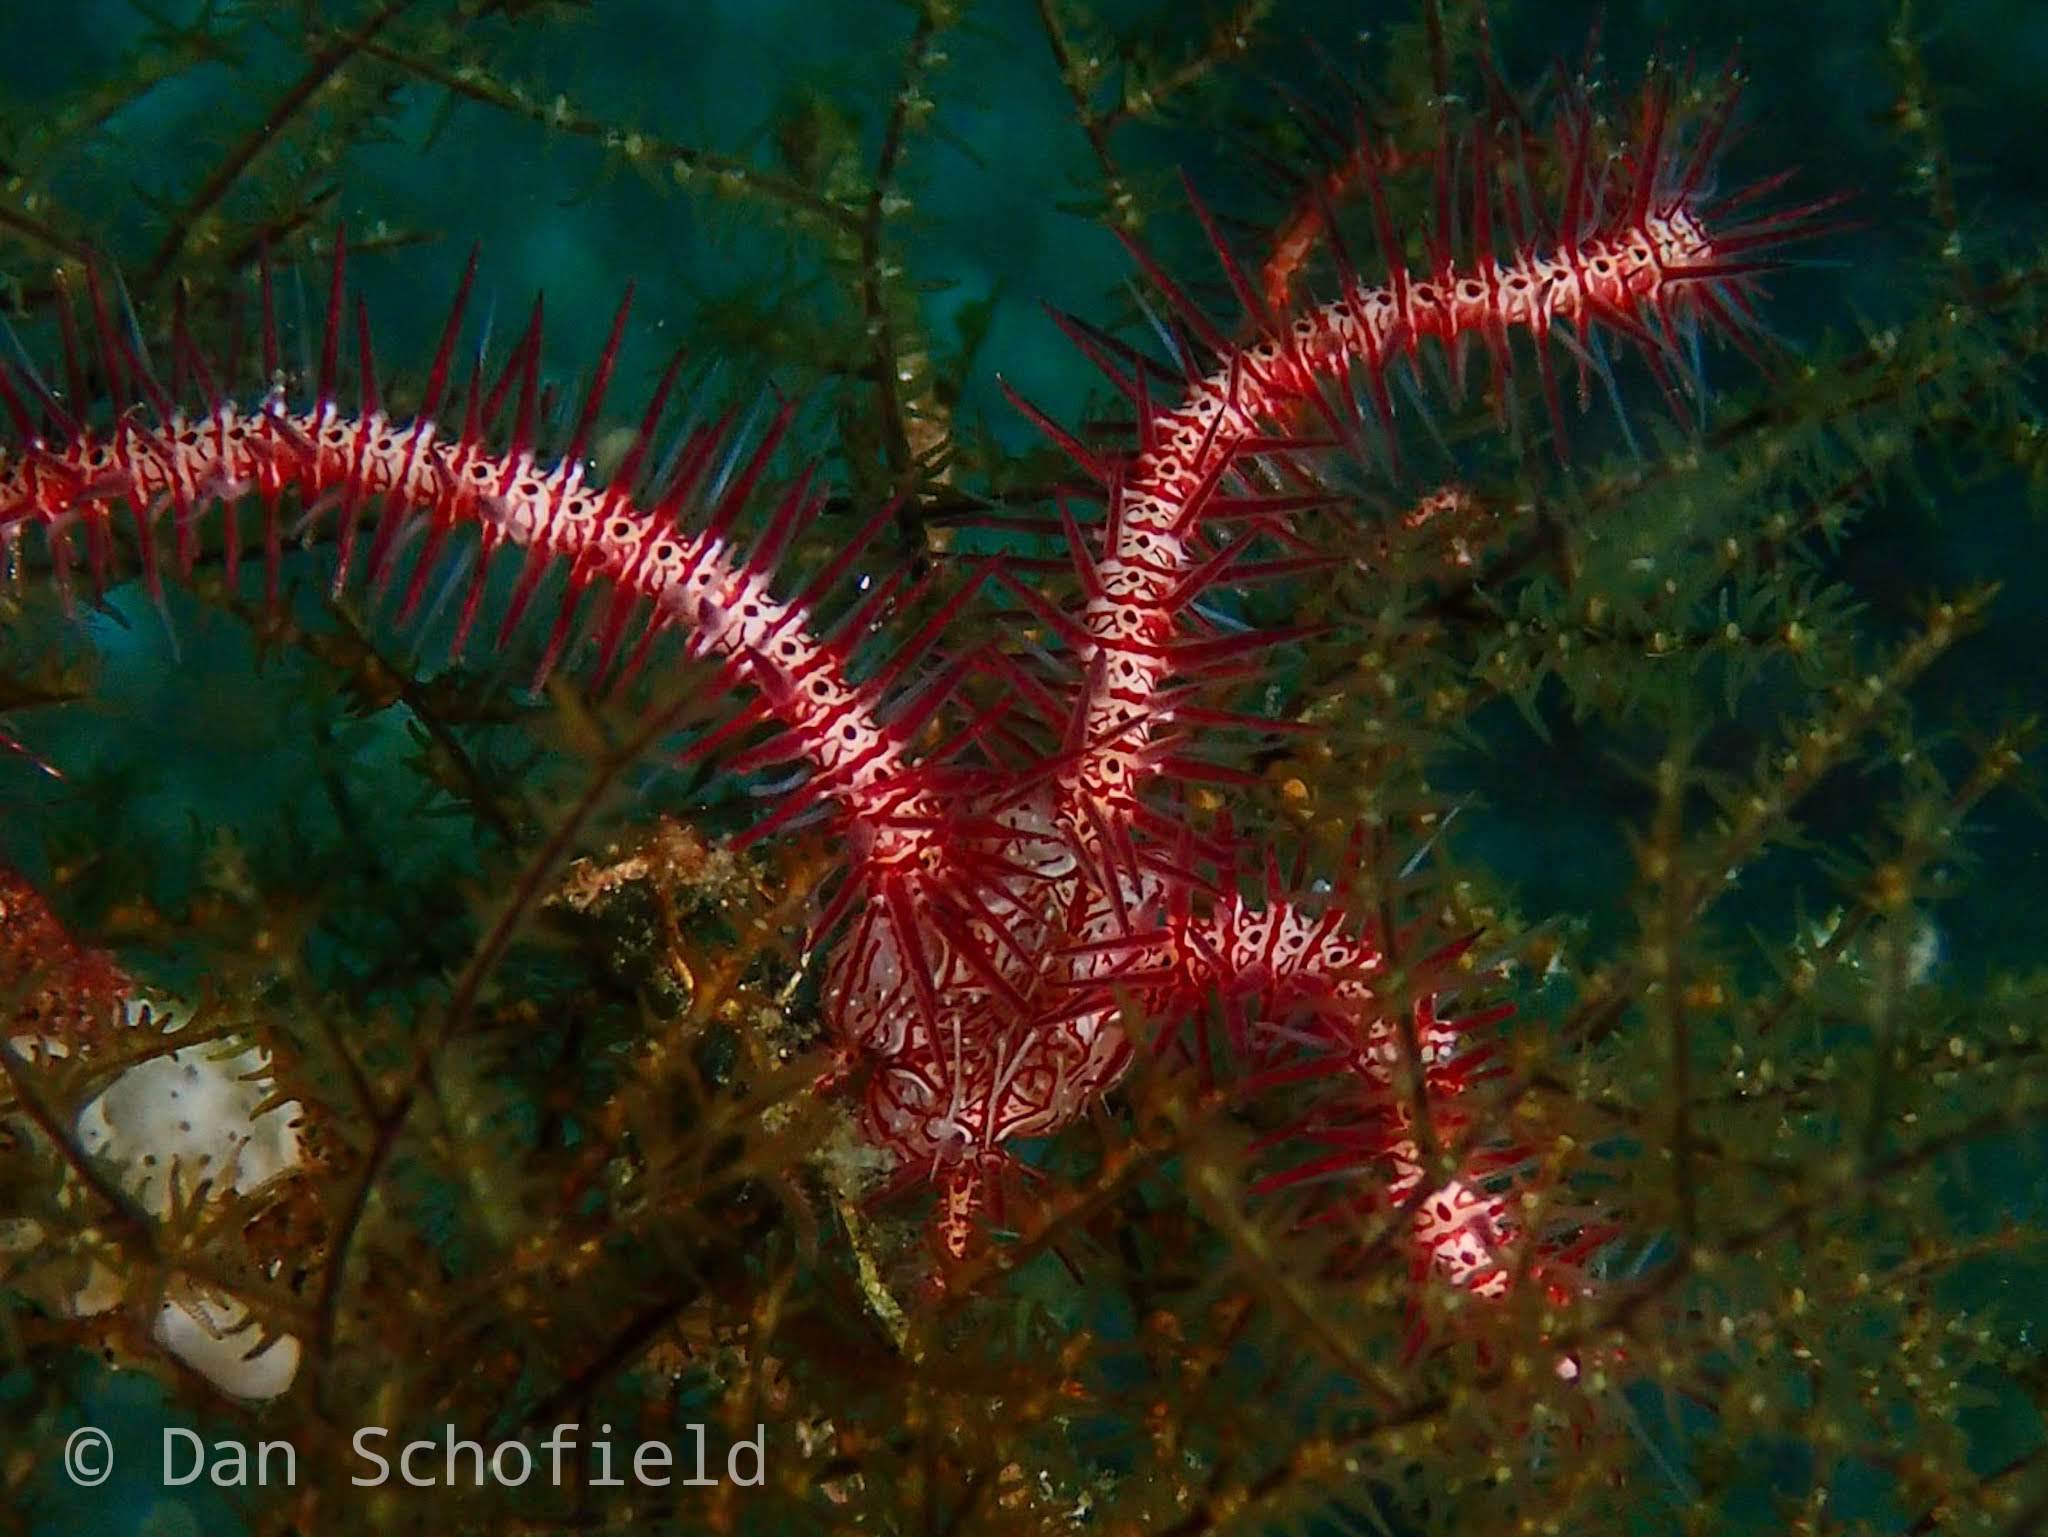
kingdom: Animalia
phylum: Echinodermata
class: Ophiuroidea
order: Amphilepidida
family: Ophiotrichidae
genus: Ophiothrix
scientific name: Ophiothrix purpurea
